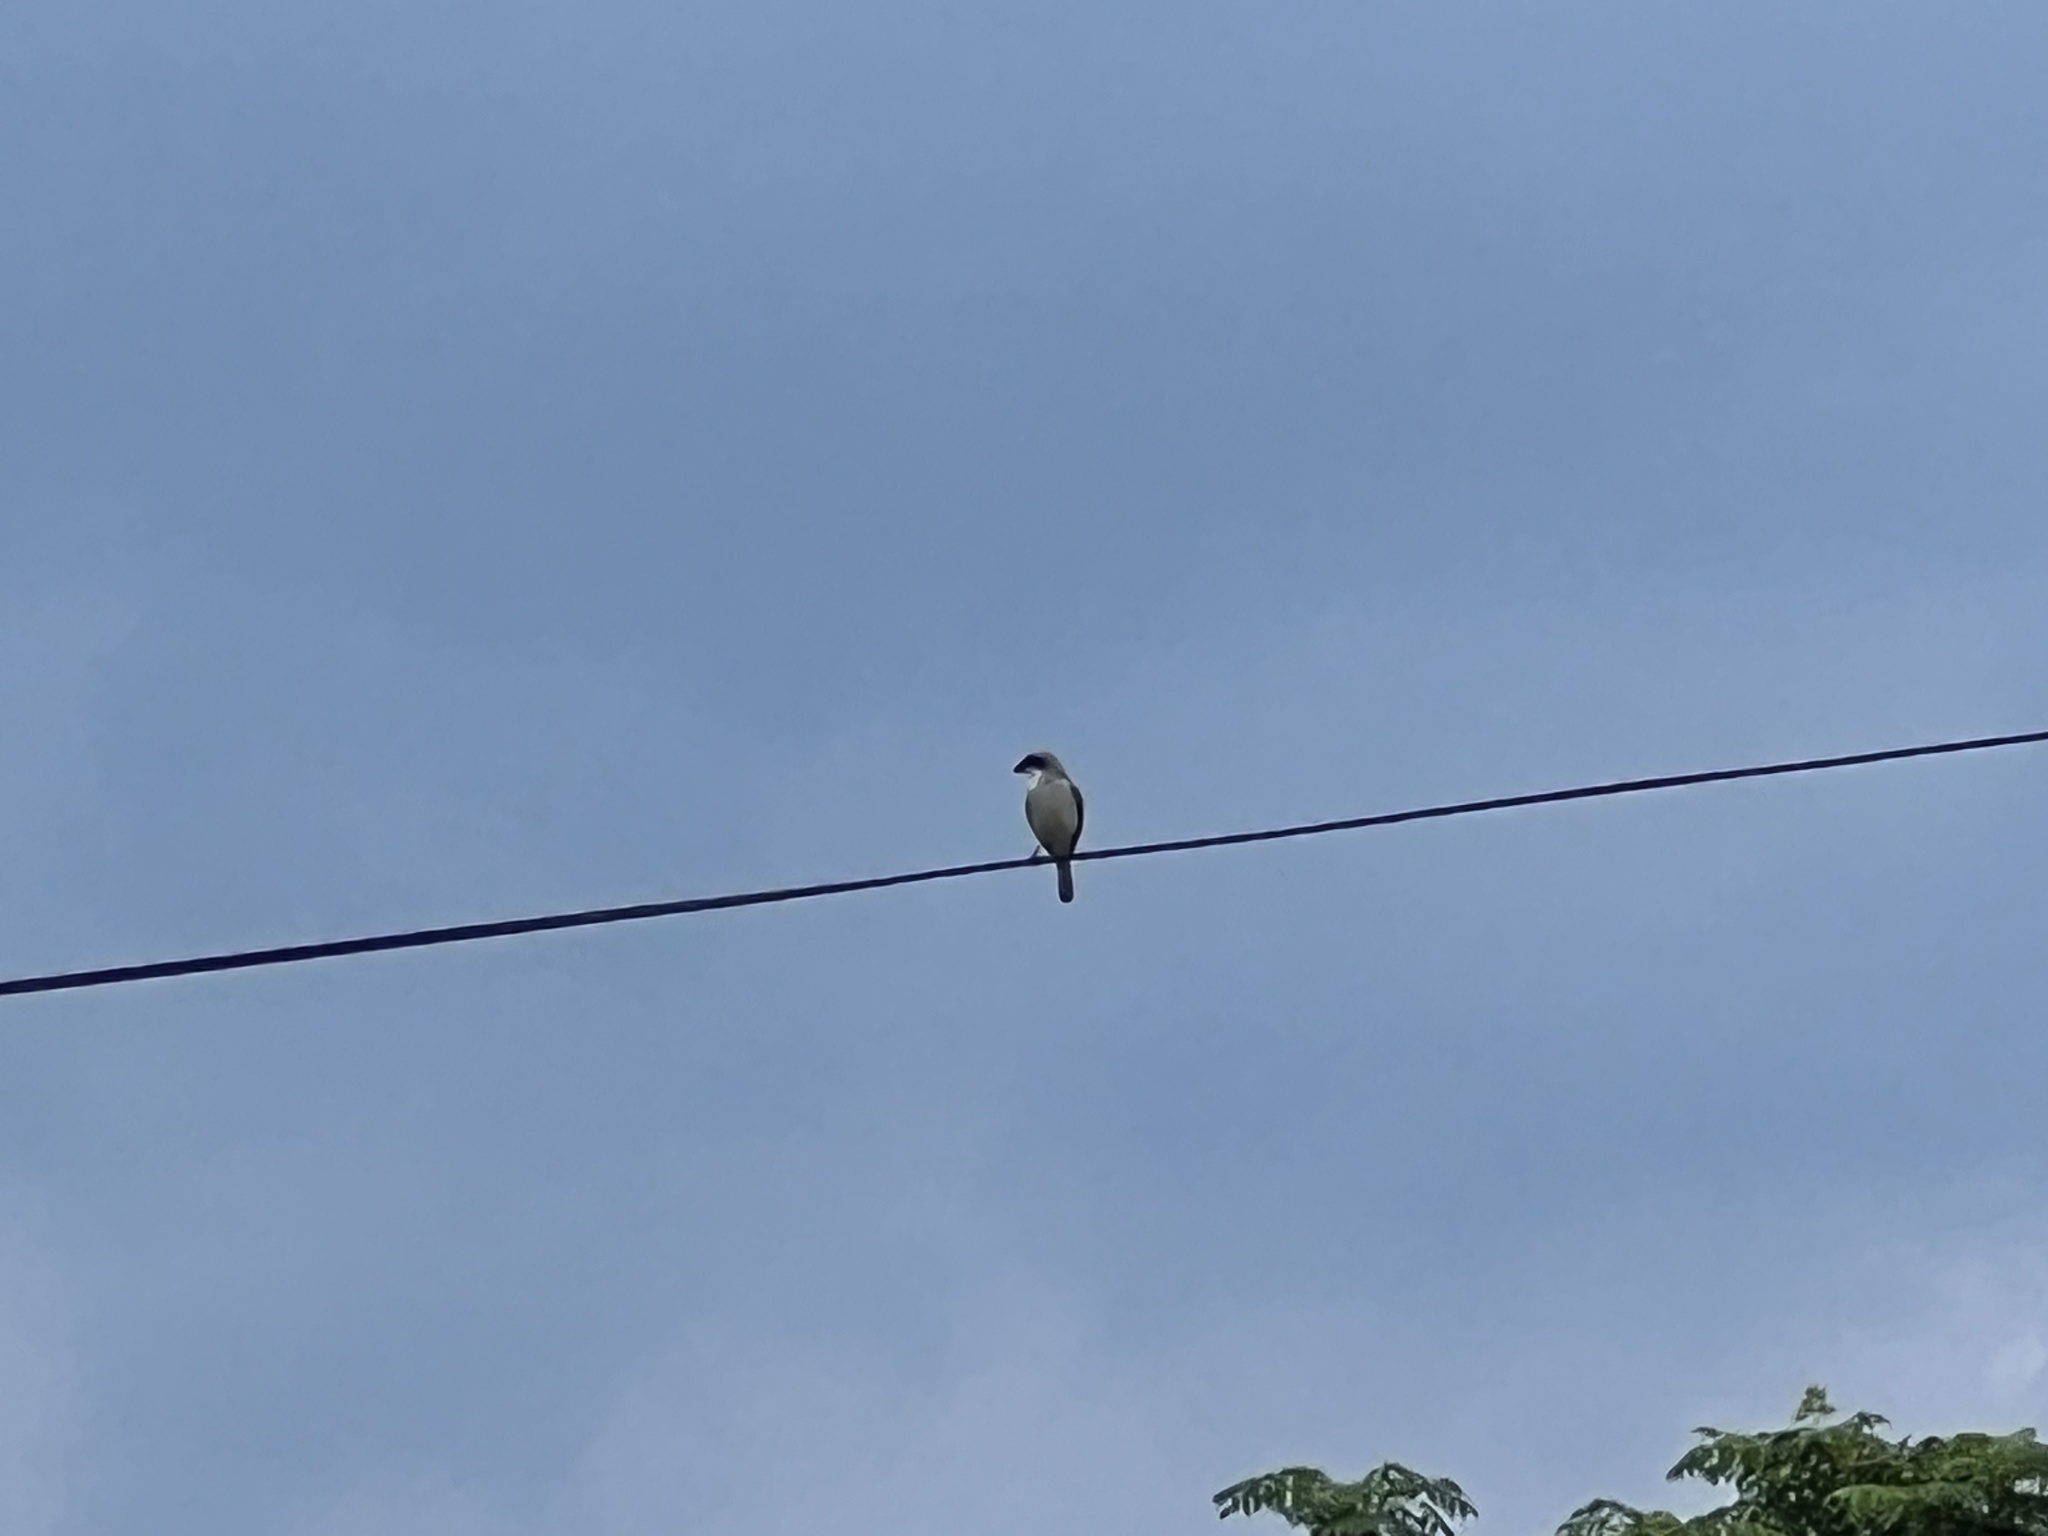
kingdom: Animalia
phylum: Chordata
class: Aves
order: Passeriformes
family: Laniidae
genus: Lanius
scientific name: Lanius ludovicianus
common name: Loggerhead shrike
